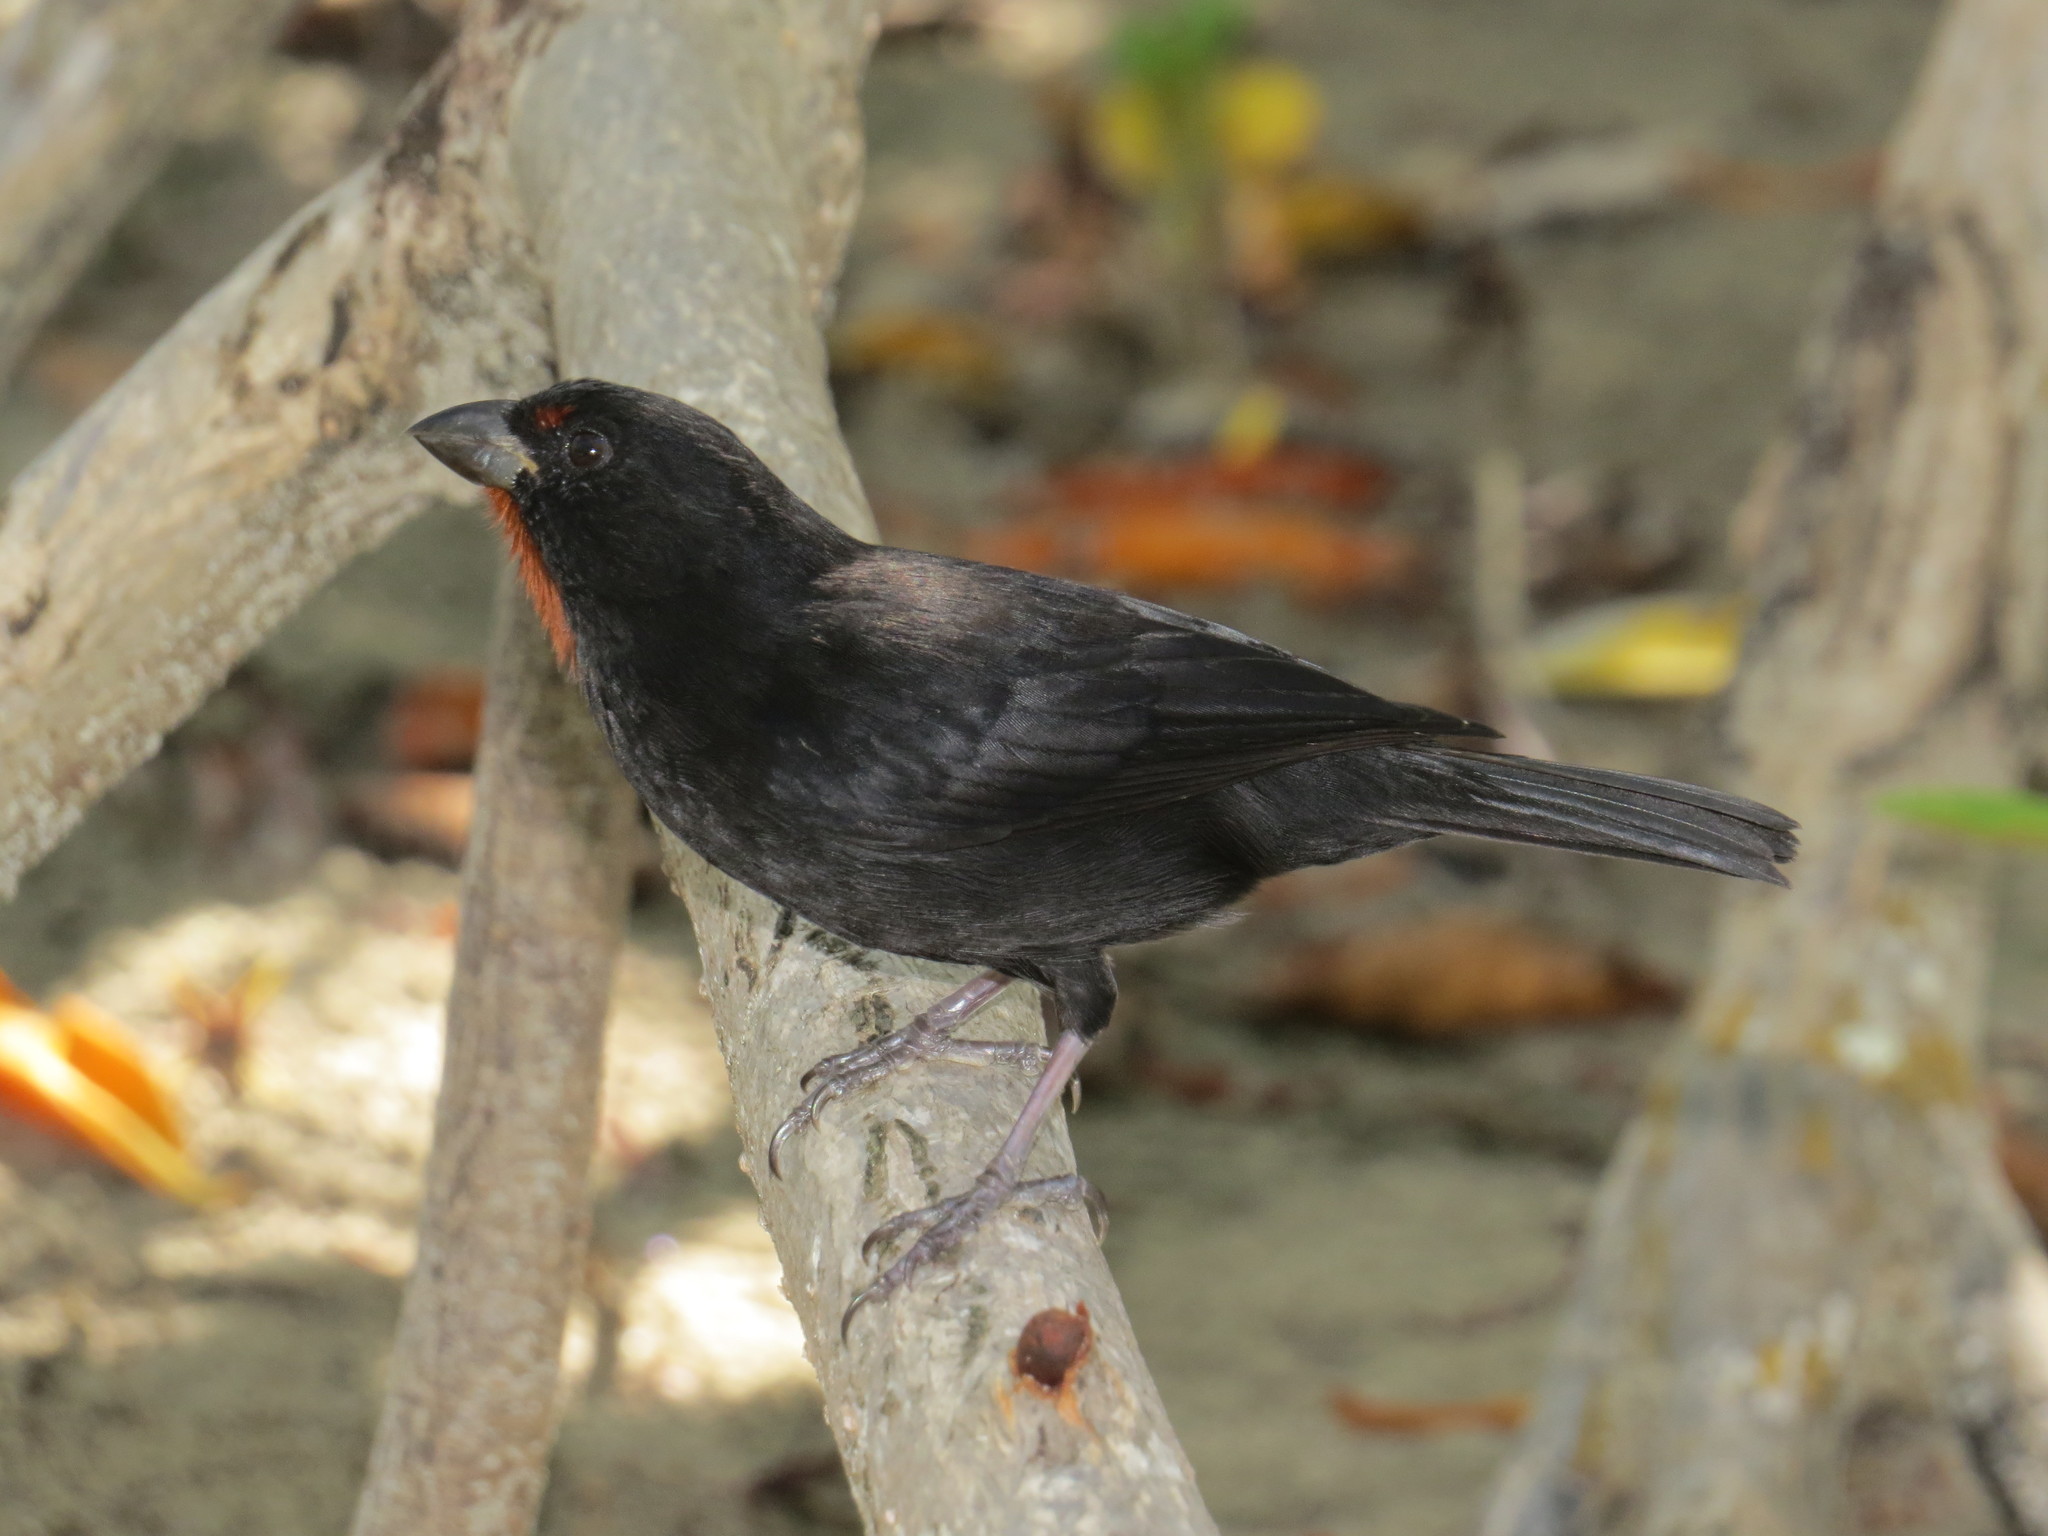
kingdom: Animalia
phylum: Chordata
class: Aves
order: Passeriformes
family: Thraupidae
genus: Loxigilla
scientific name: Loxigilla noctis
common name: Lesser antillean bullfinch
